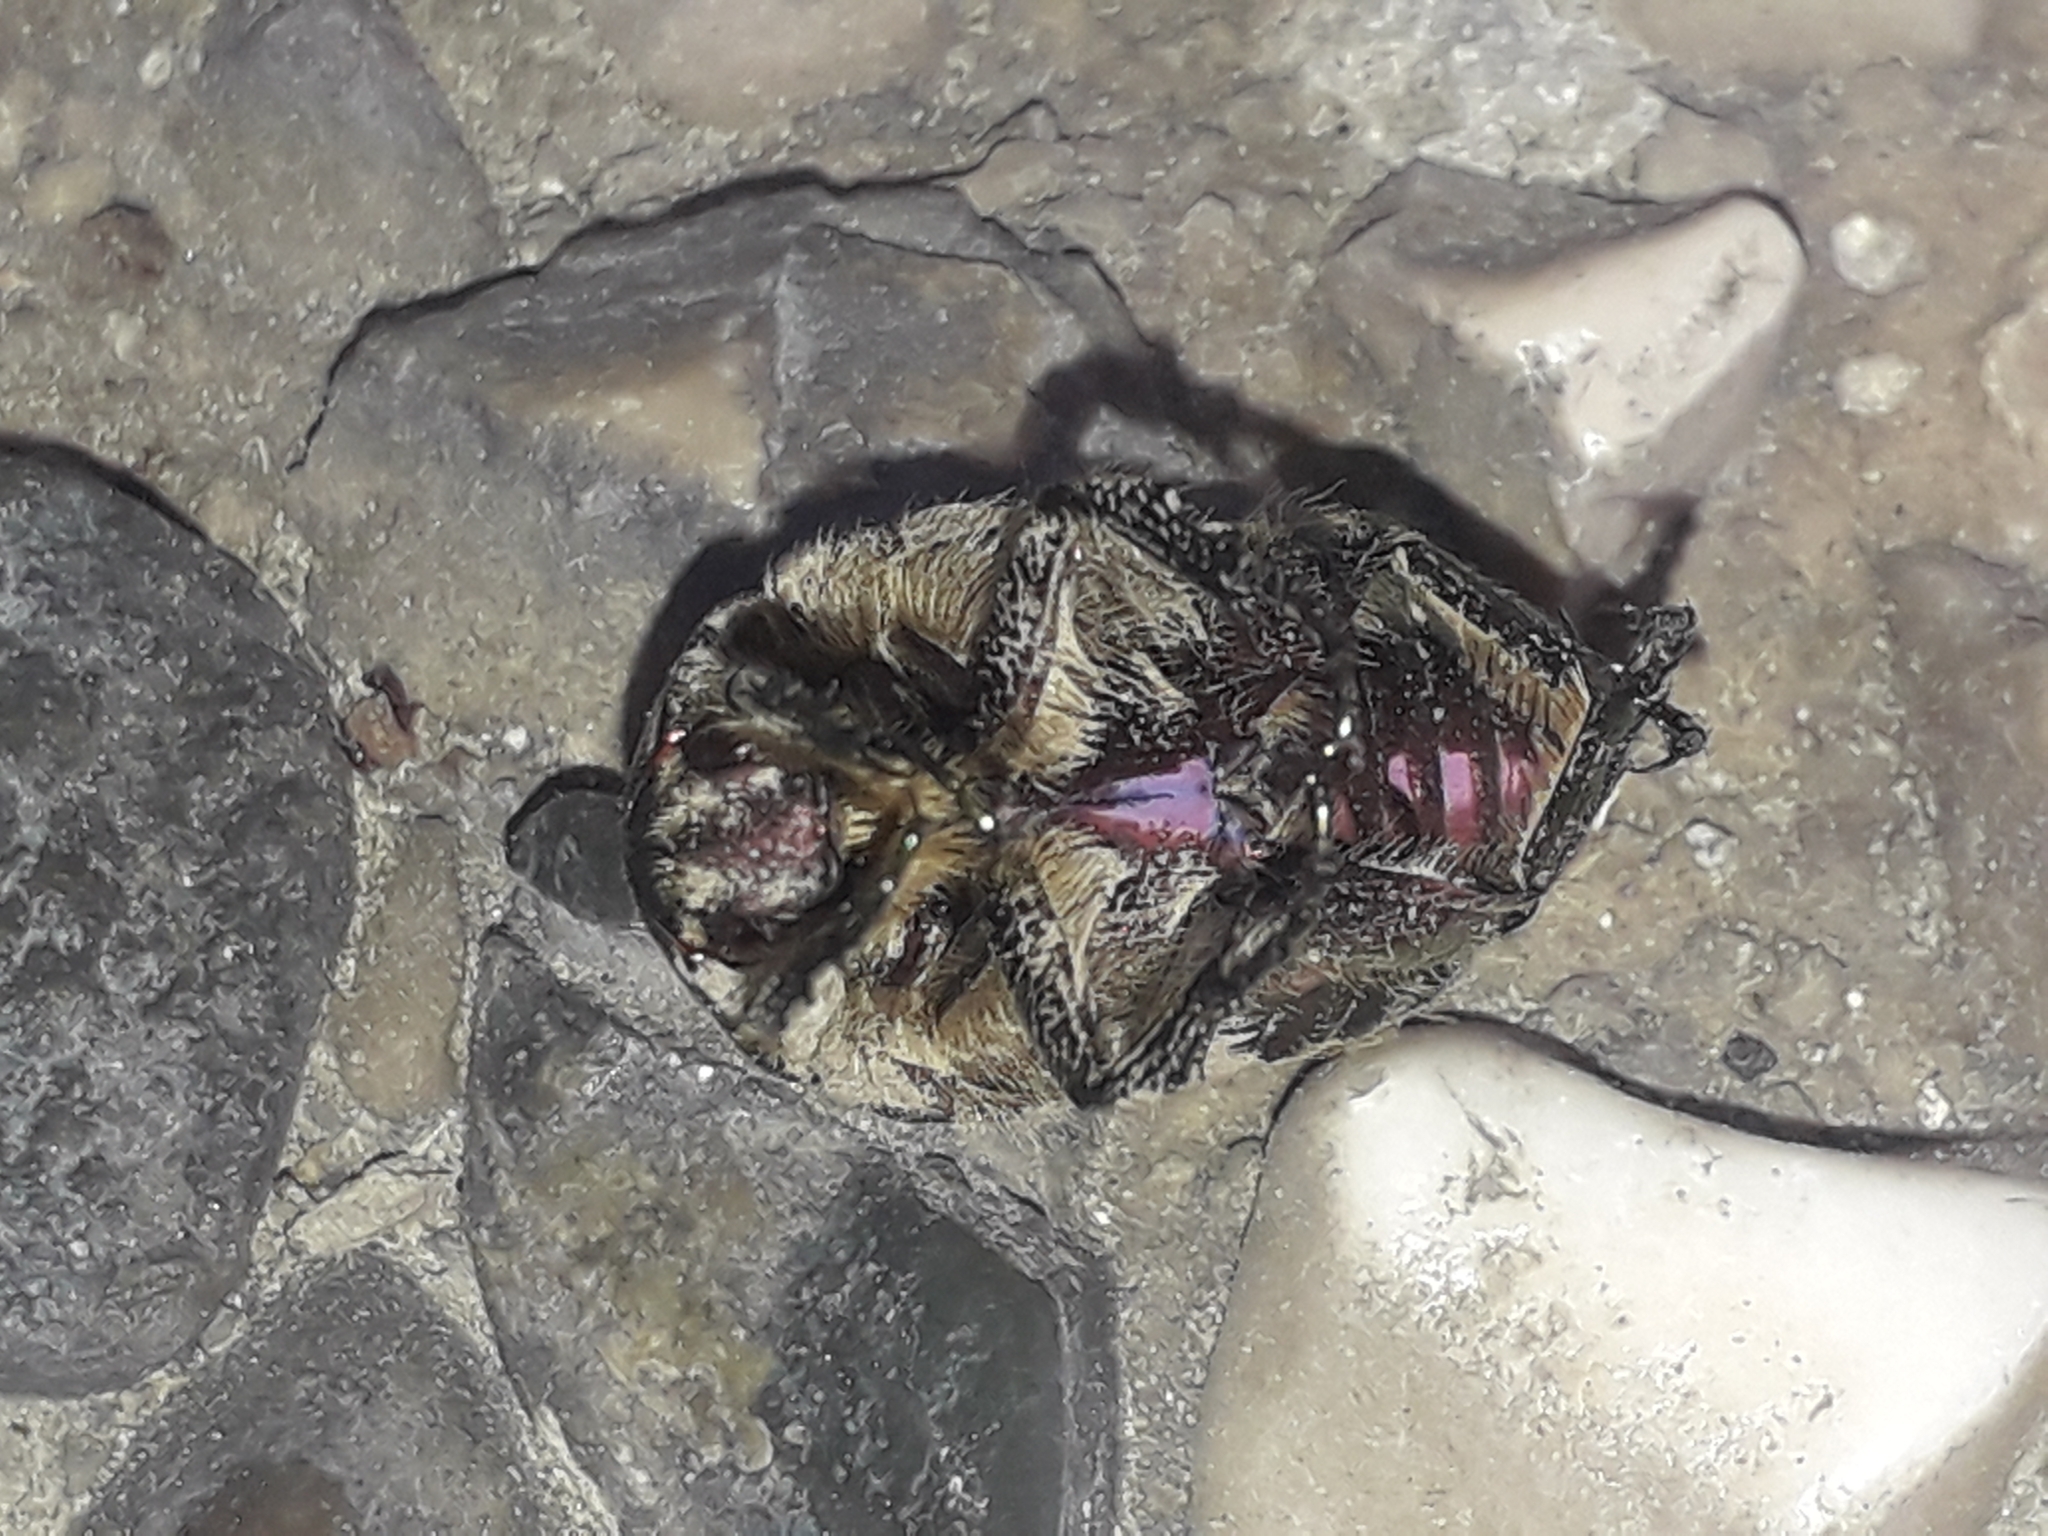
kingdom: Animalia
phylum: Arthropoda
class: Insecta
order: Coleoptera
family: Scarabaeidae
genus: Cetonia
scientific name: Cetonia aurata
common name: Rose chafer
